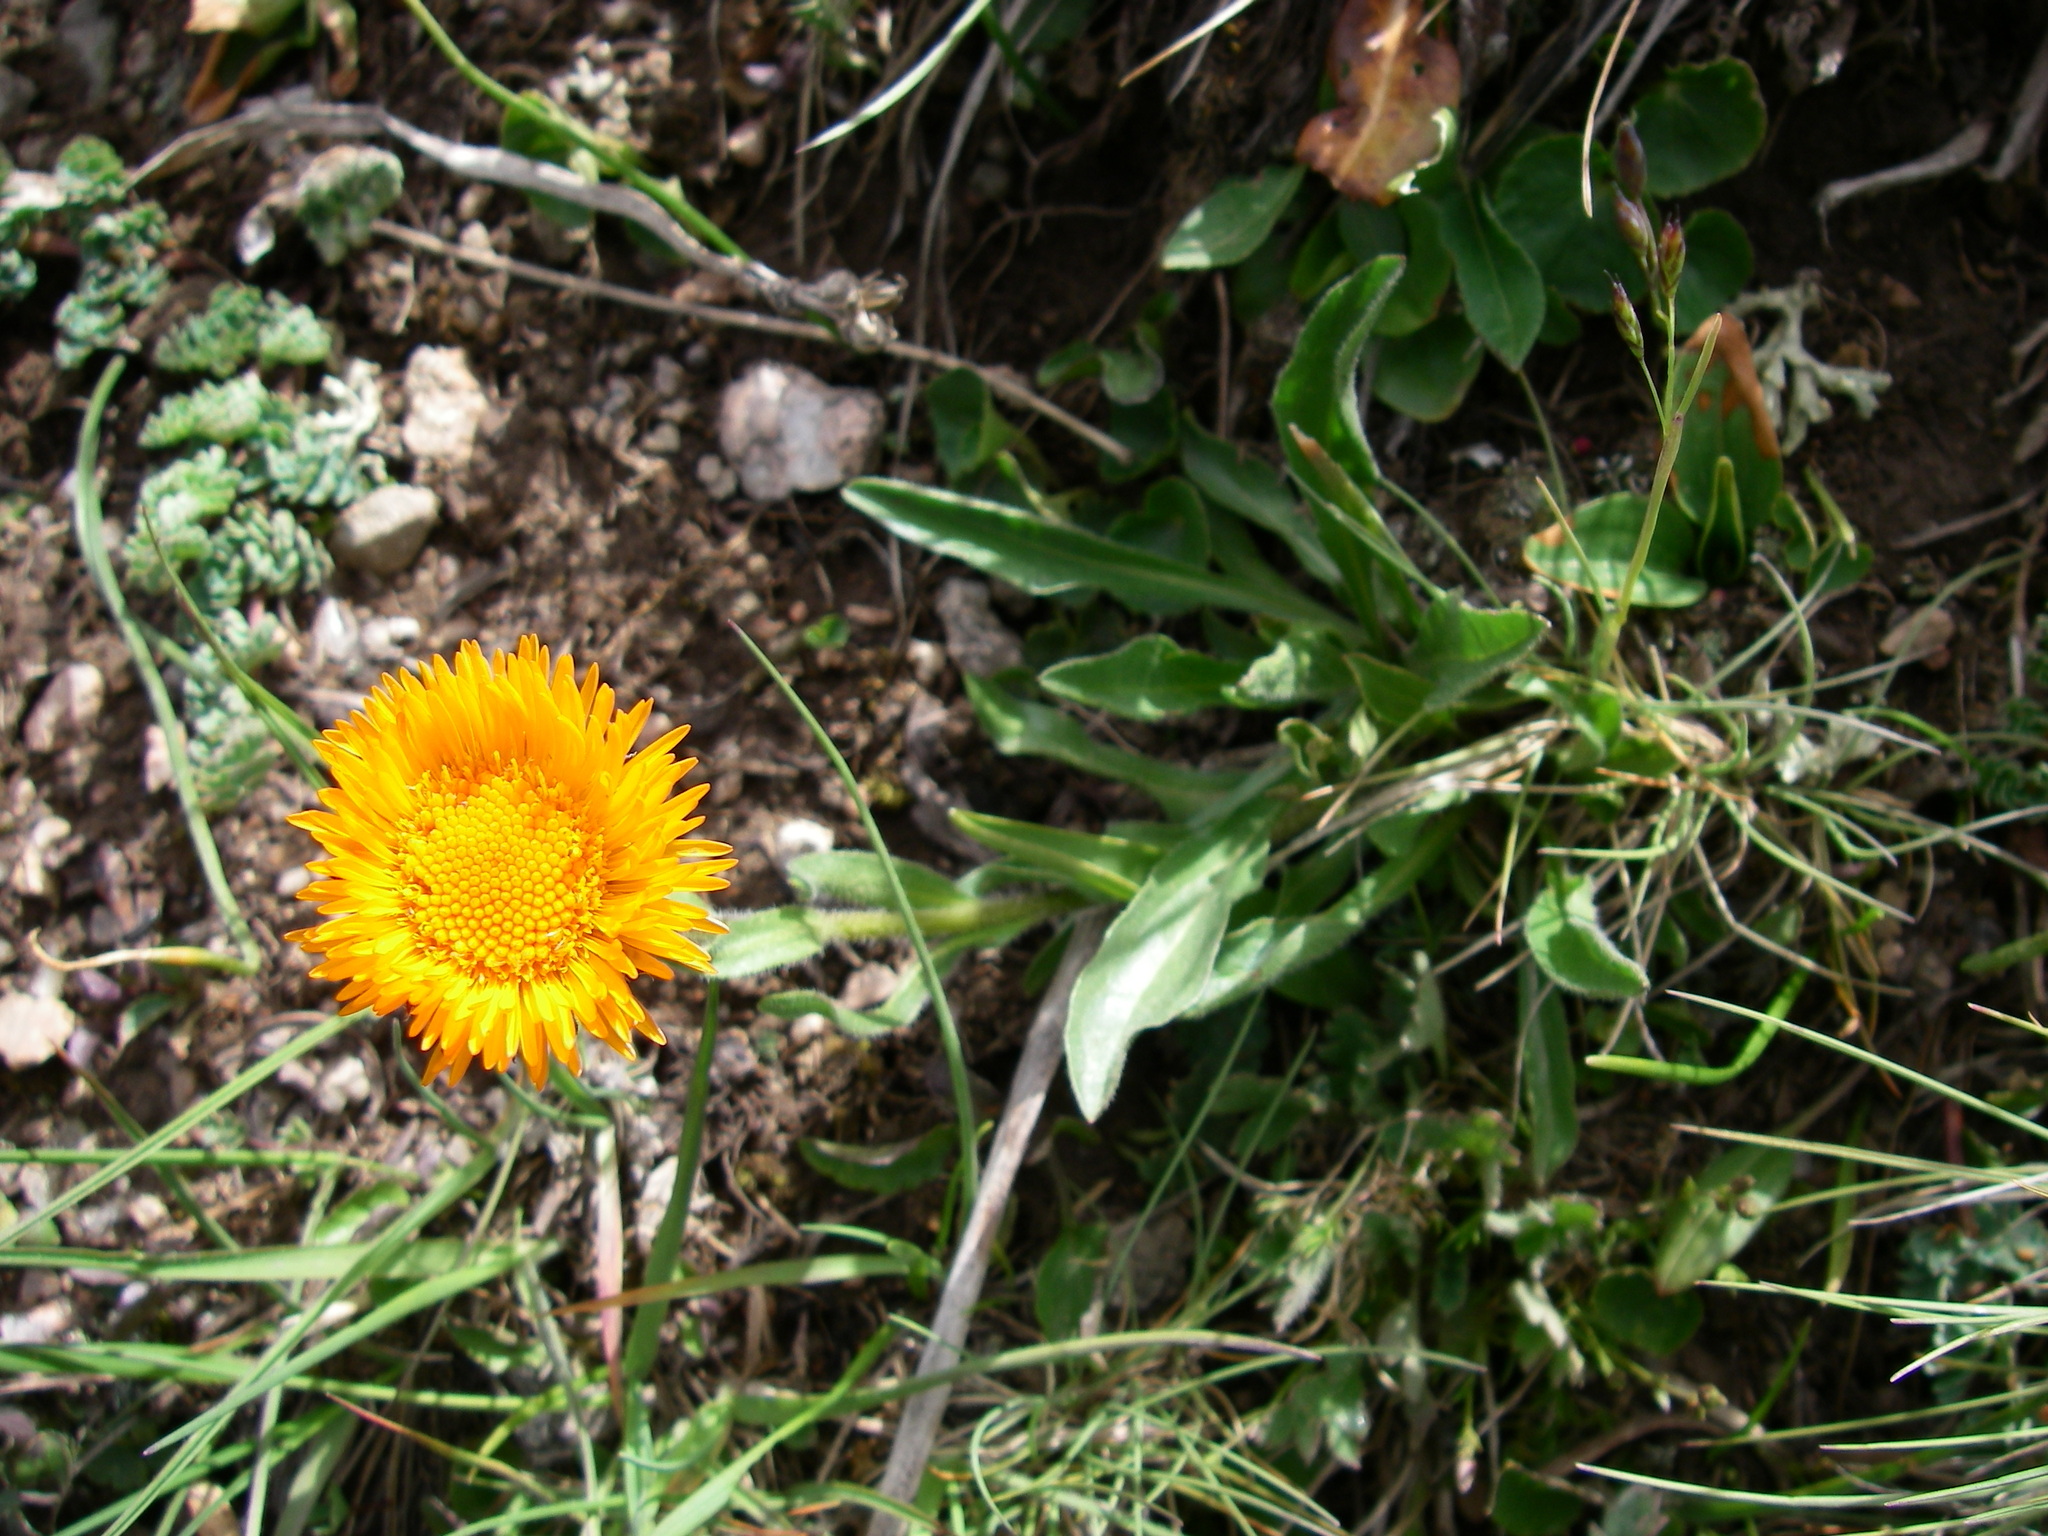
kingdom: Plantae
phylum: Tracheophyta
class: Magnoliopsida
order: Asterales
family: Asteraceae
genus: Erigeron
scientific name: Erigeron aurantiacus
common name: Orange daisy
